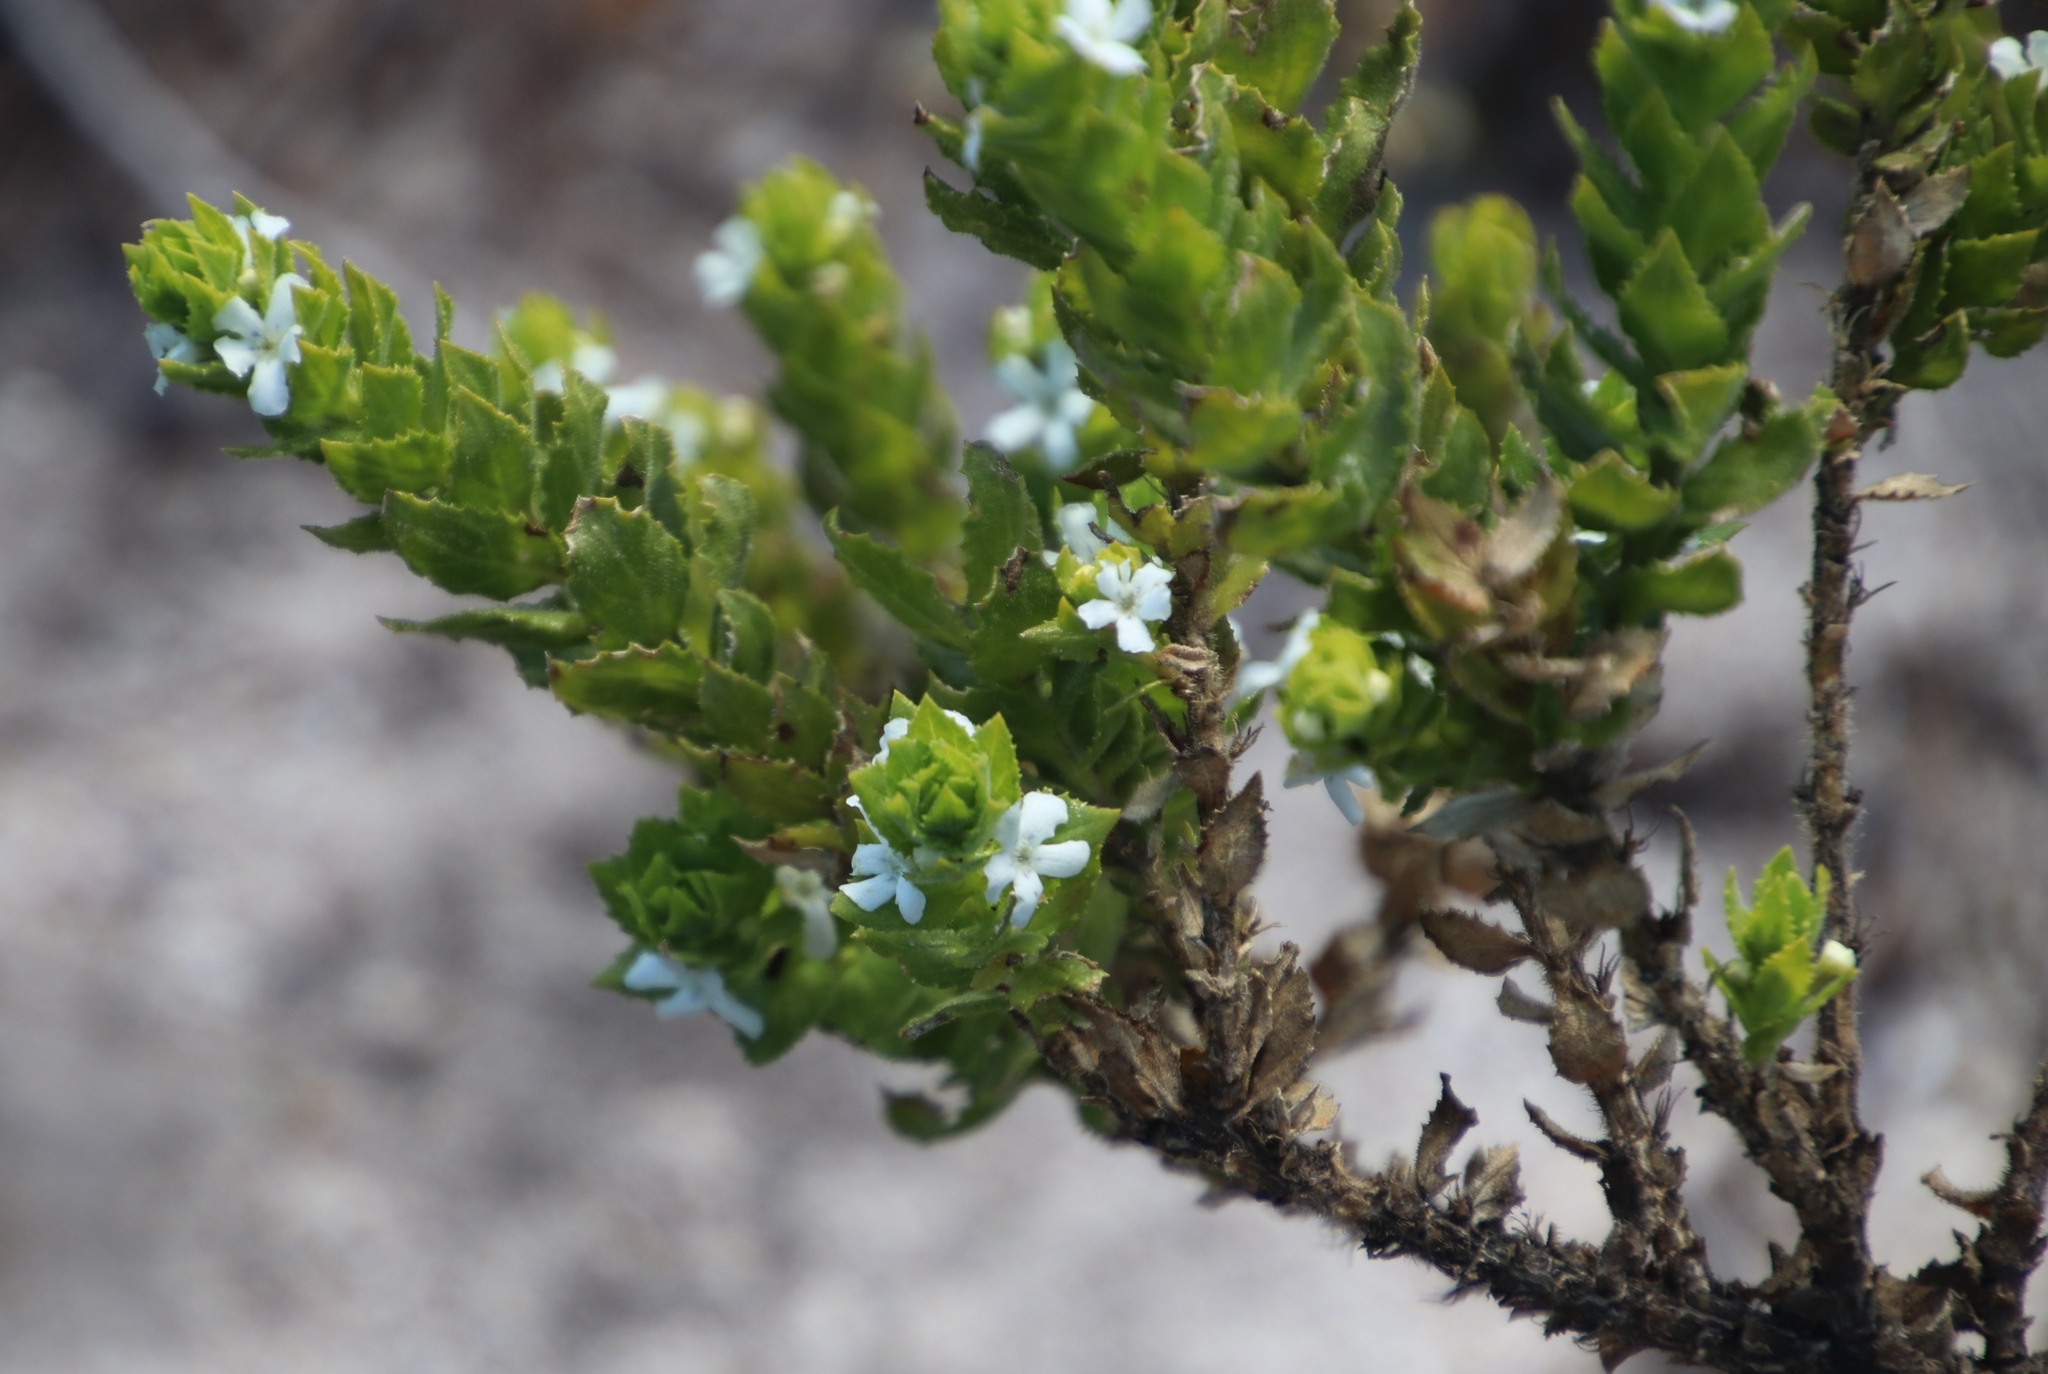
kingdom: Plantae
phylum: Tracheophyta
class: Magnoliopsida
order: Lamiales
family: Scrophulariaceae
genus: Oftia
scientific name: Oftia africana
